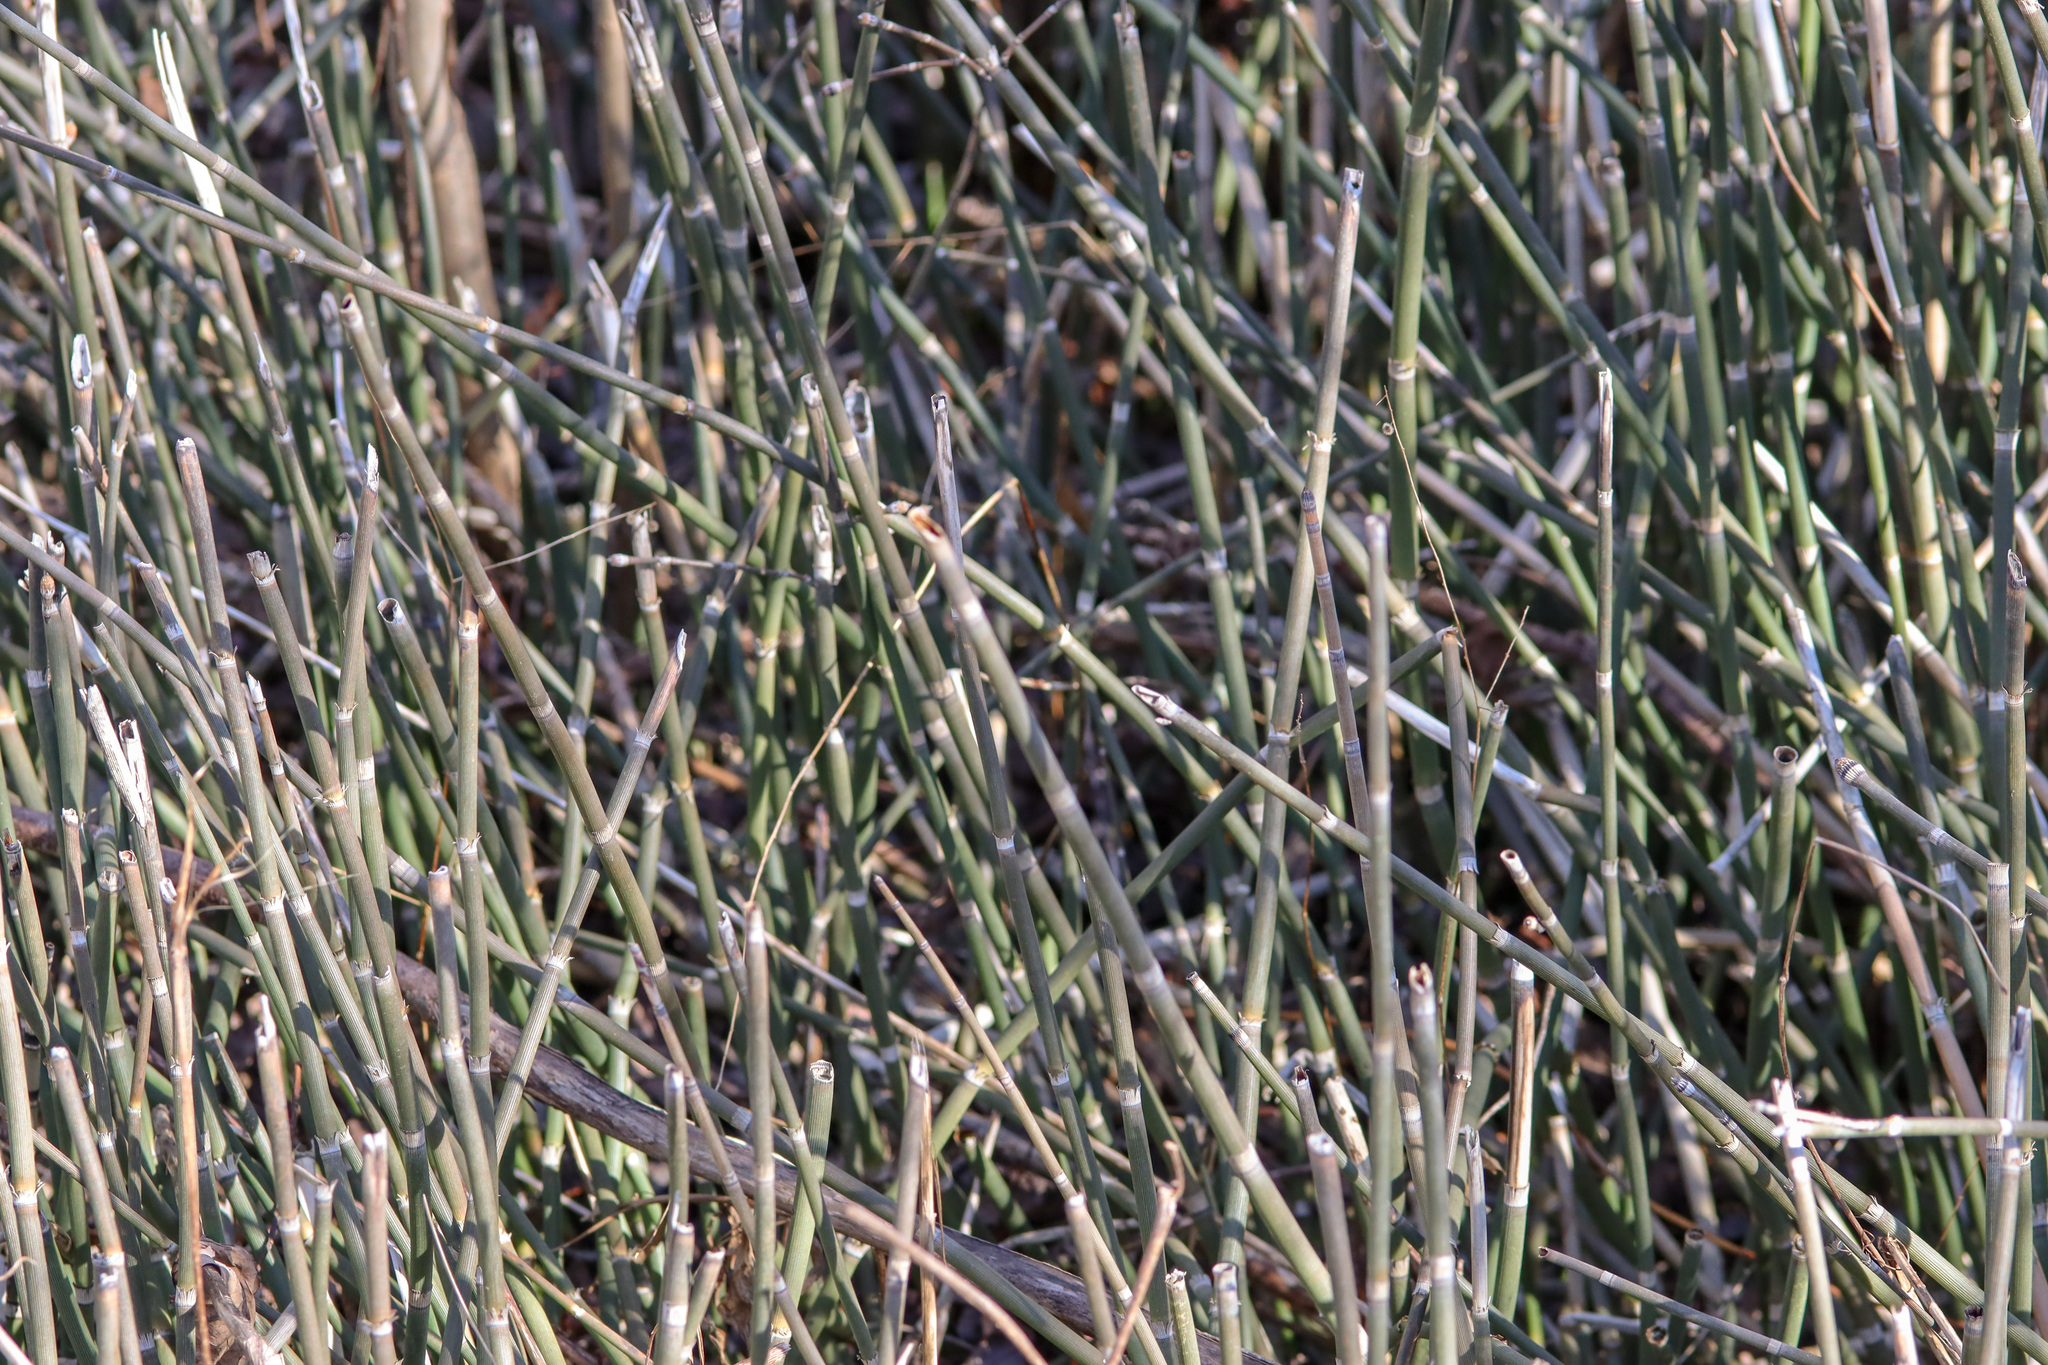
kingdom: Plantae
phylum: Tracheophyta
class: Polypodiopsida
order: Equisetales
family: Equisetaceae
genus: Equisetum
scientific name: Equisetum hyemale
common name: Rough horsetail
